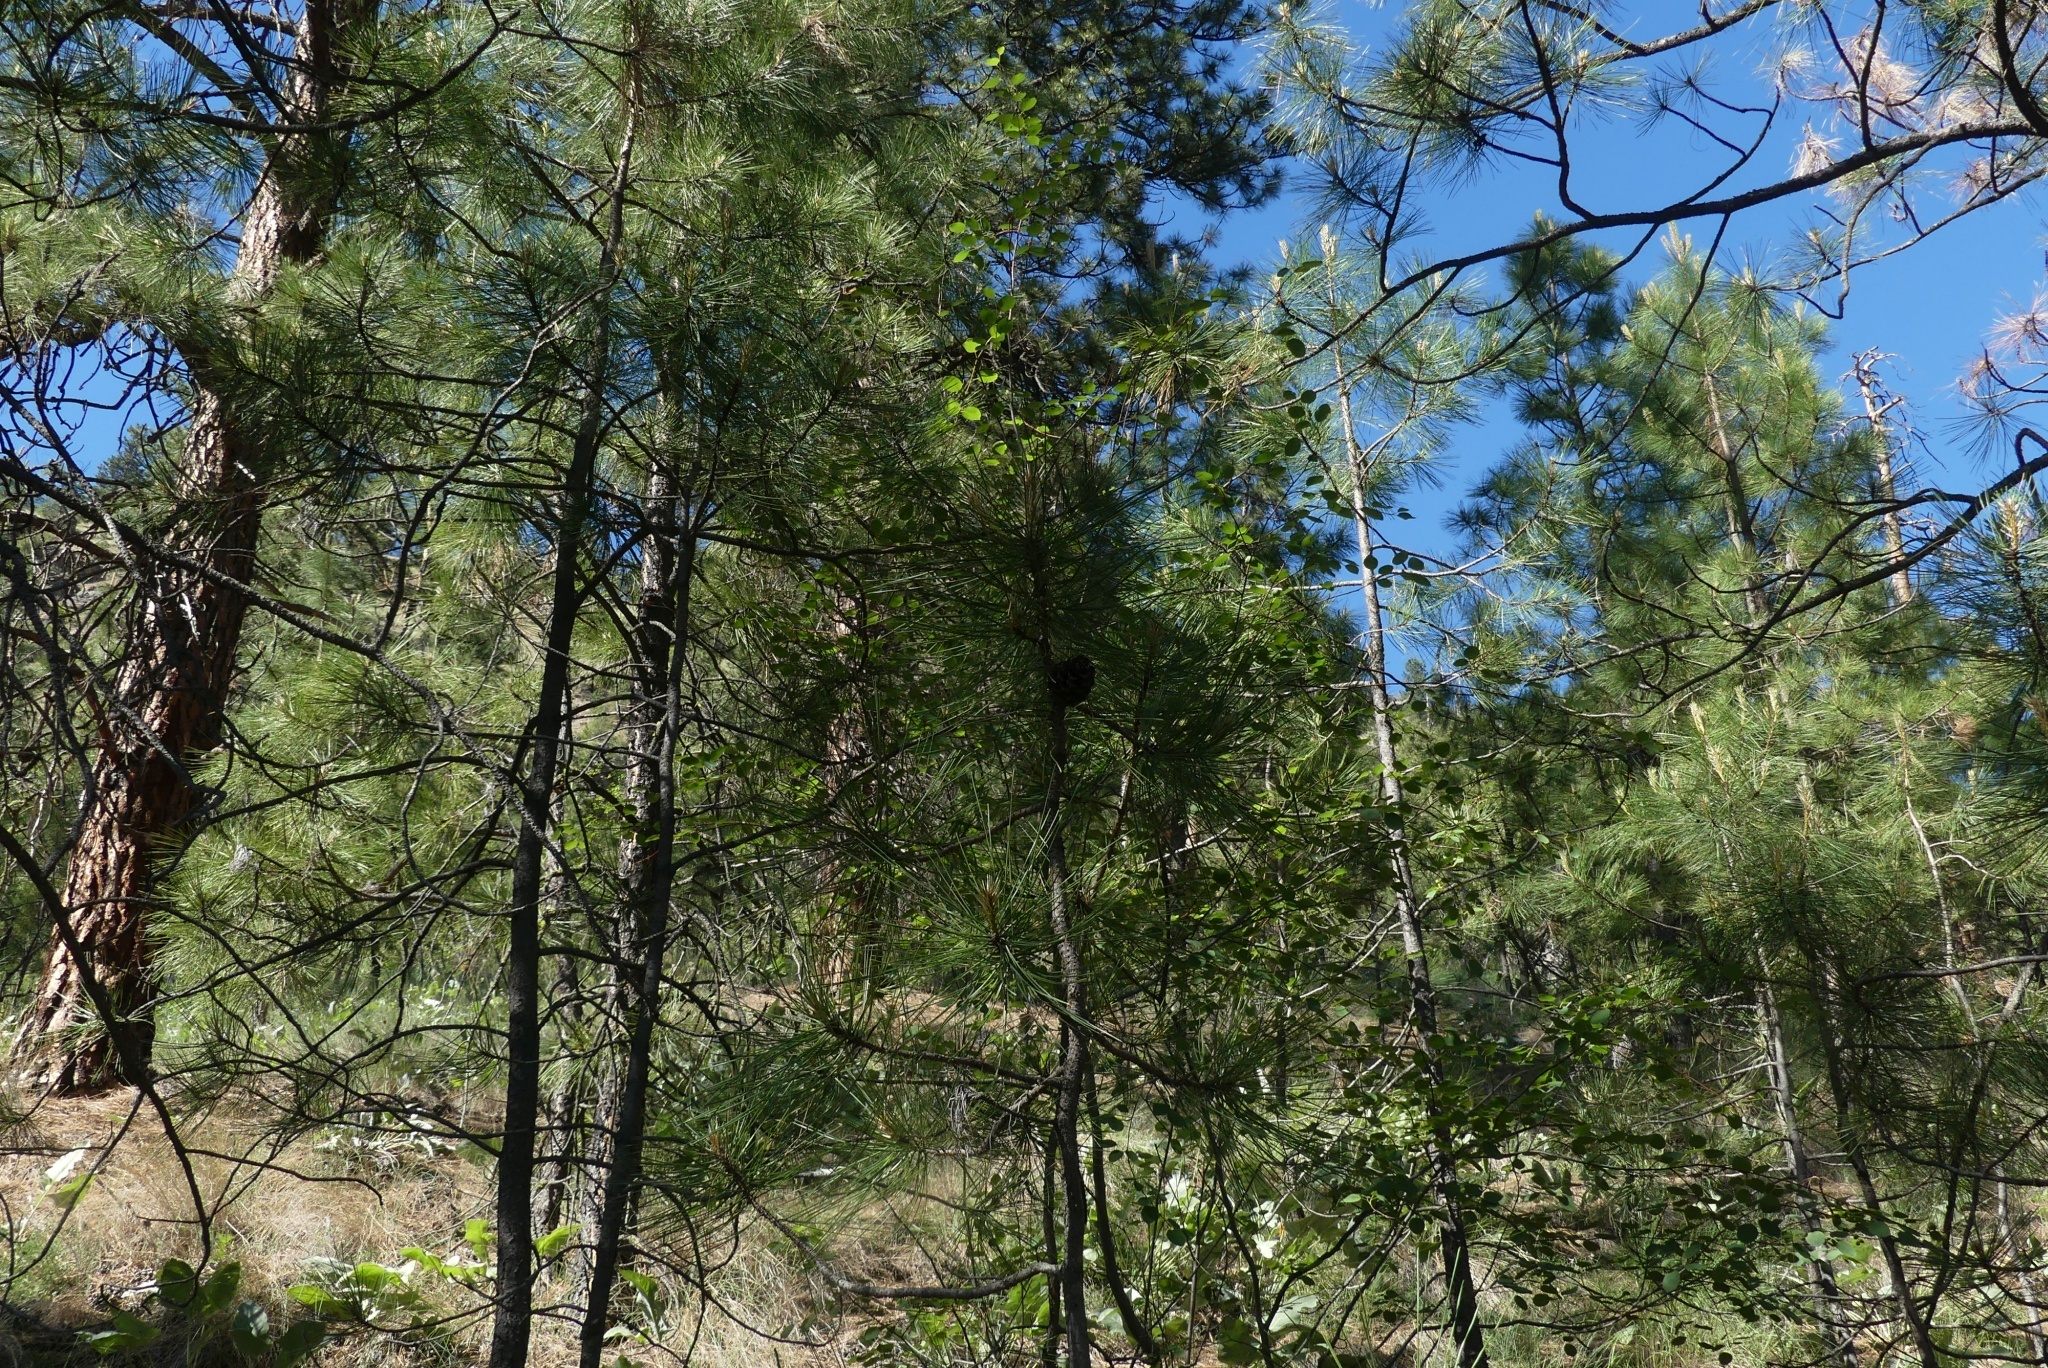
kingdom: Plantae
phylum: Tracheophyta
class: Pinopsida
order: Pinales
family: Pinaceae
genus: Pinus
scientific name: Pinus ponderosa
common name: Western yellow-pine
